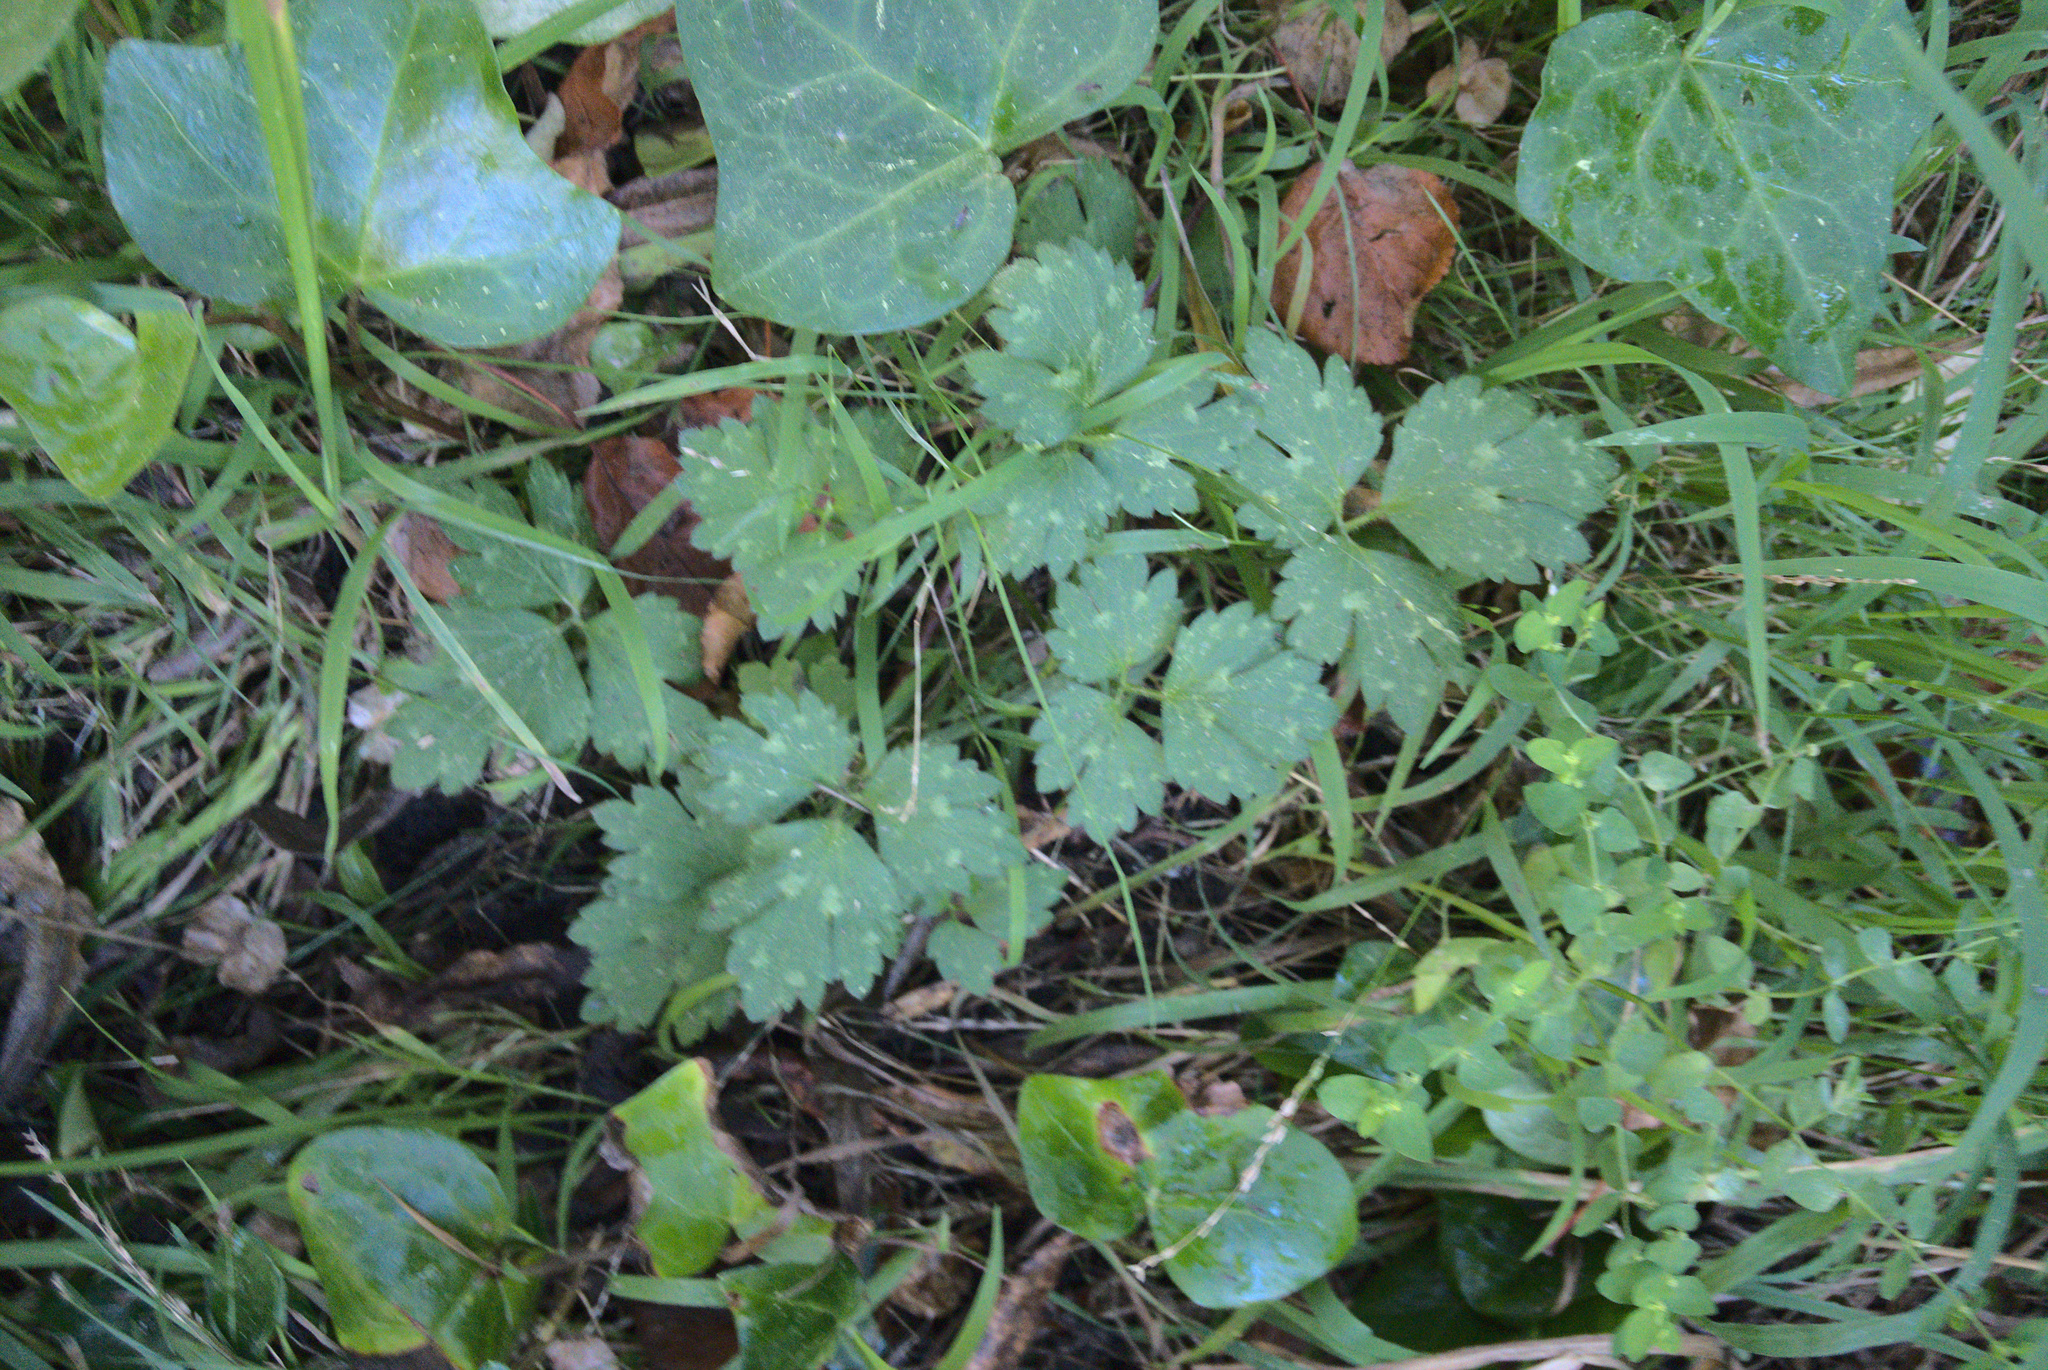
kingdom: Plantae
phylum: Tracheophyta
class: Magnoliopsida
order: Ranunculales
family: Ranunculaceae
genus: Ranunculus
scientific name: Ranunculus repens
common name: Creeping buttercup
